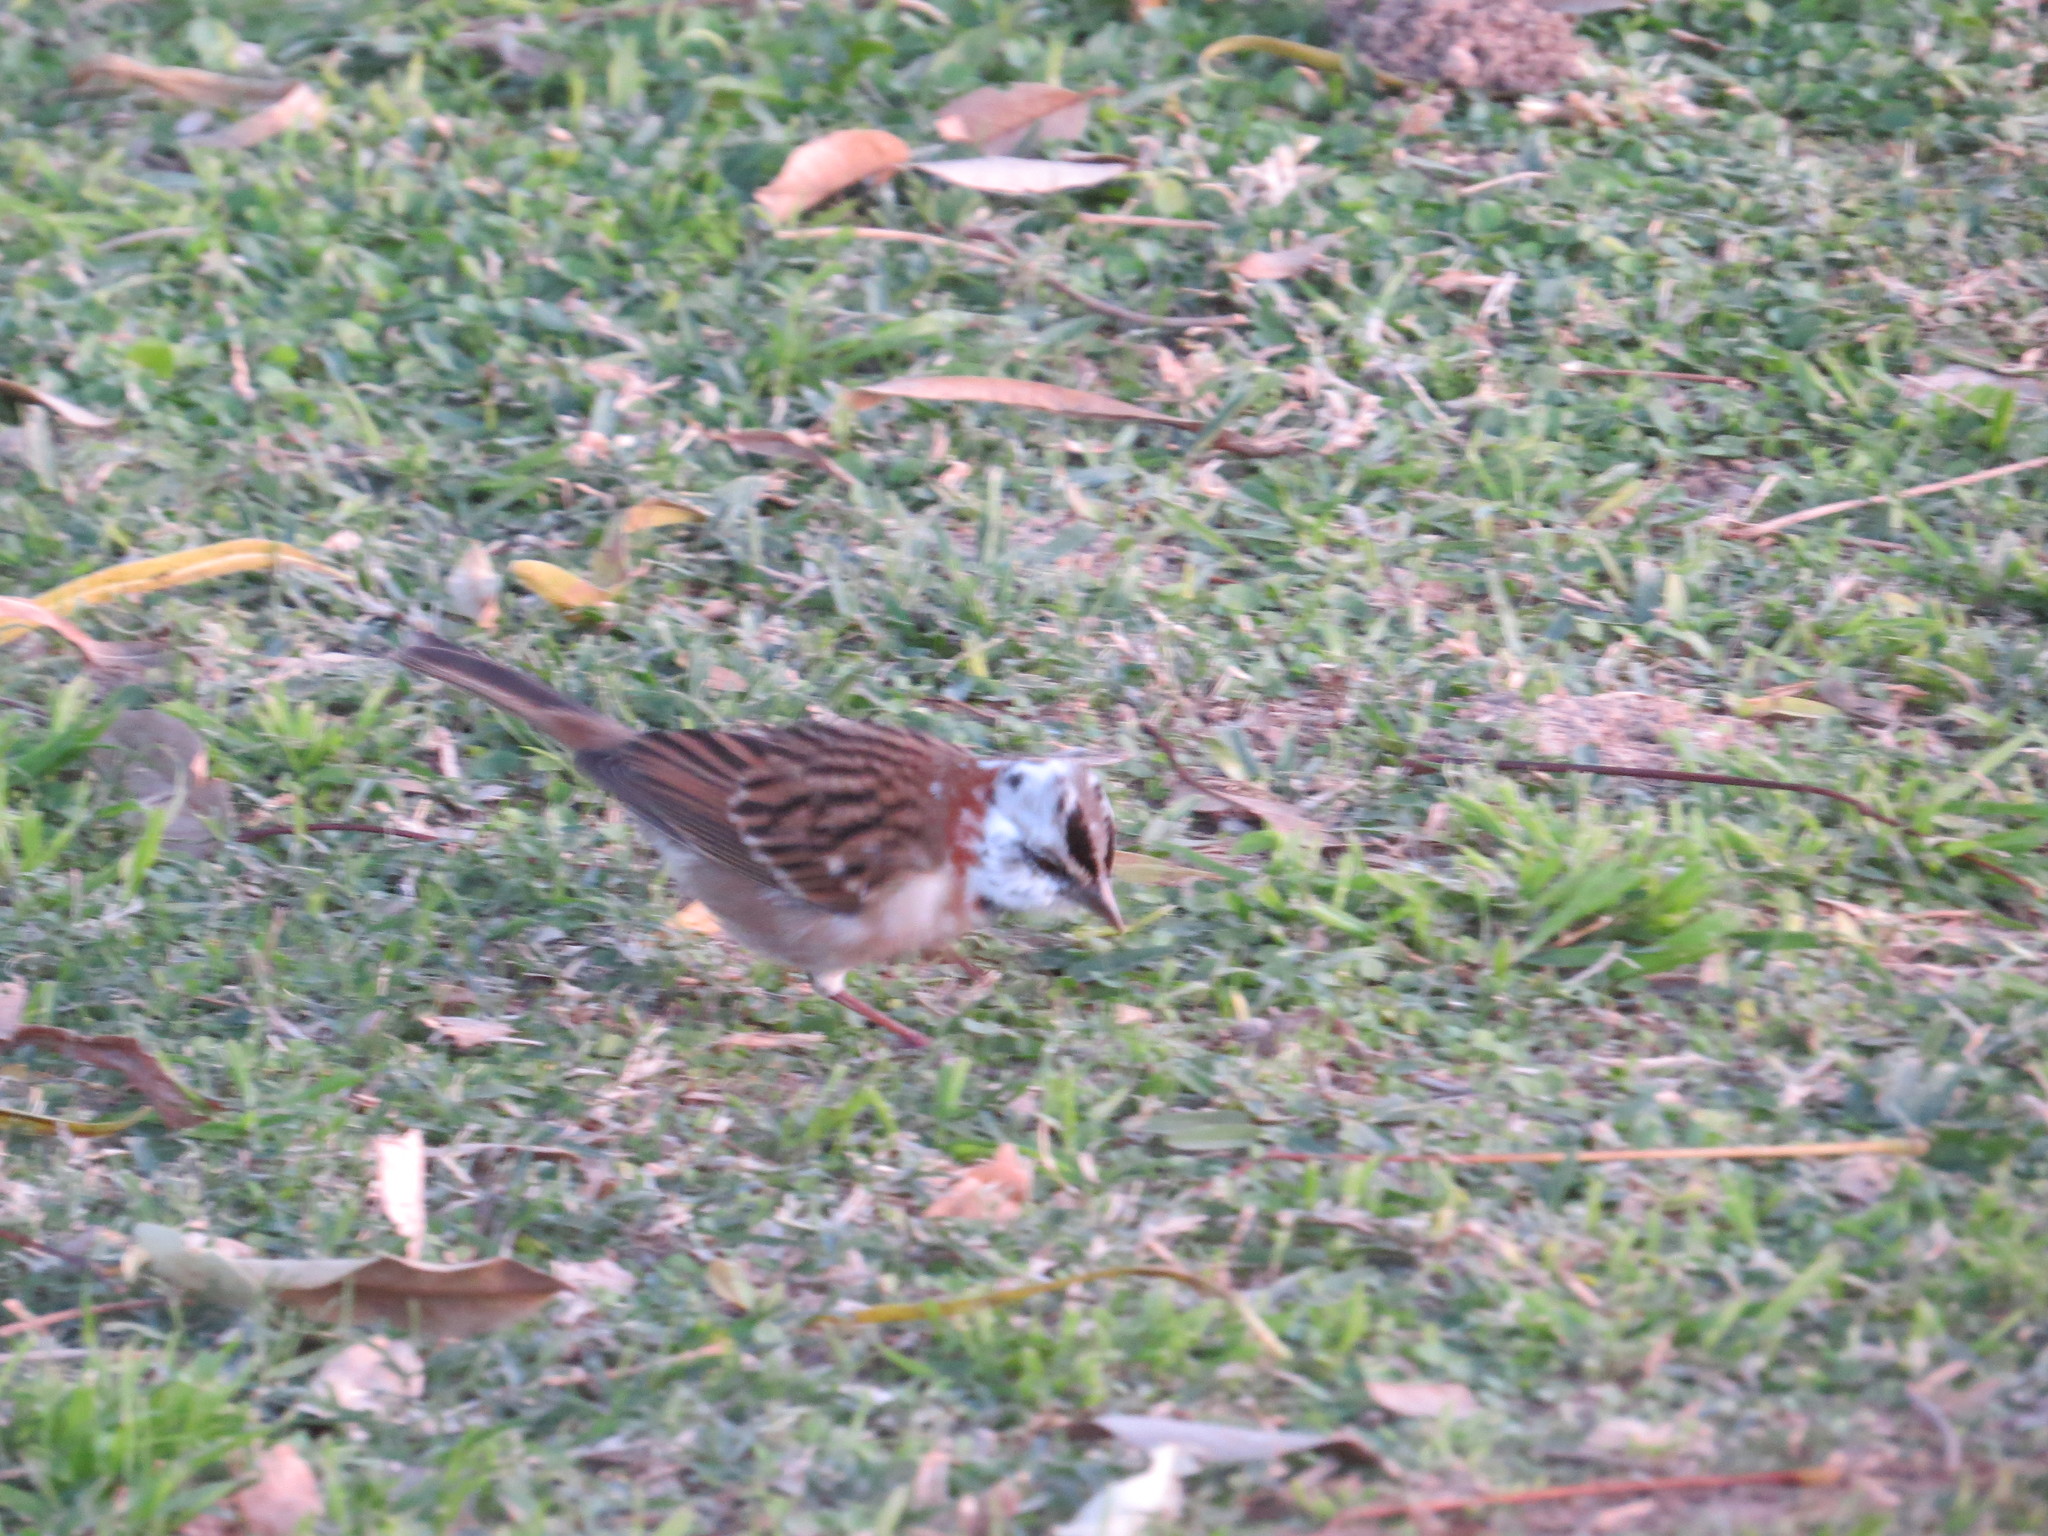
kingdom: Animalia
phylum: Chordata
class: Aves
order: Passeriformes
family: Passerellidae
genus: Zonotrichia
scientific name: Zonotrichia capensis
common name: Rufous-collared sparrow
